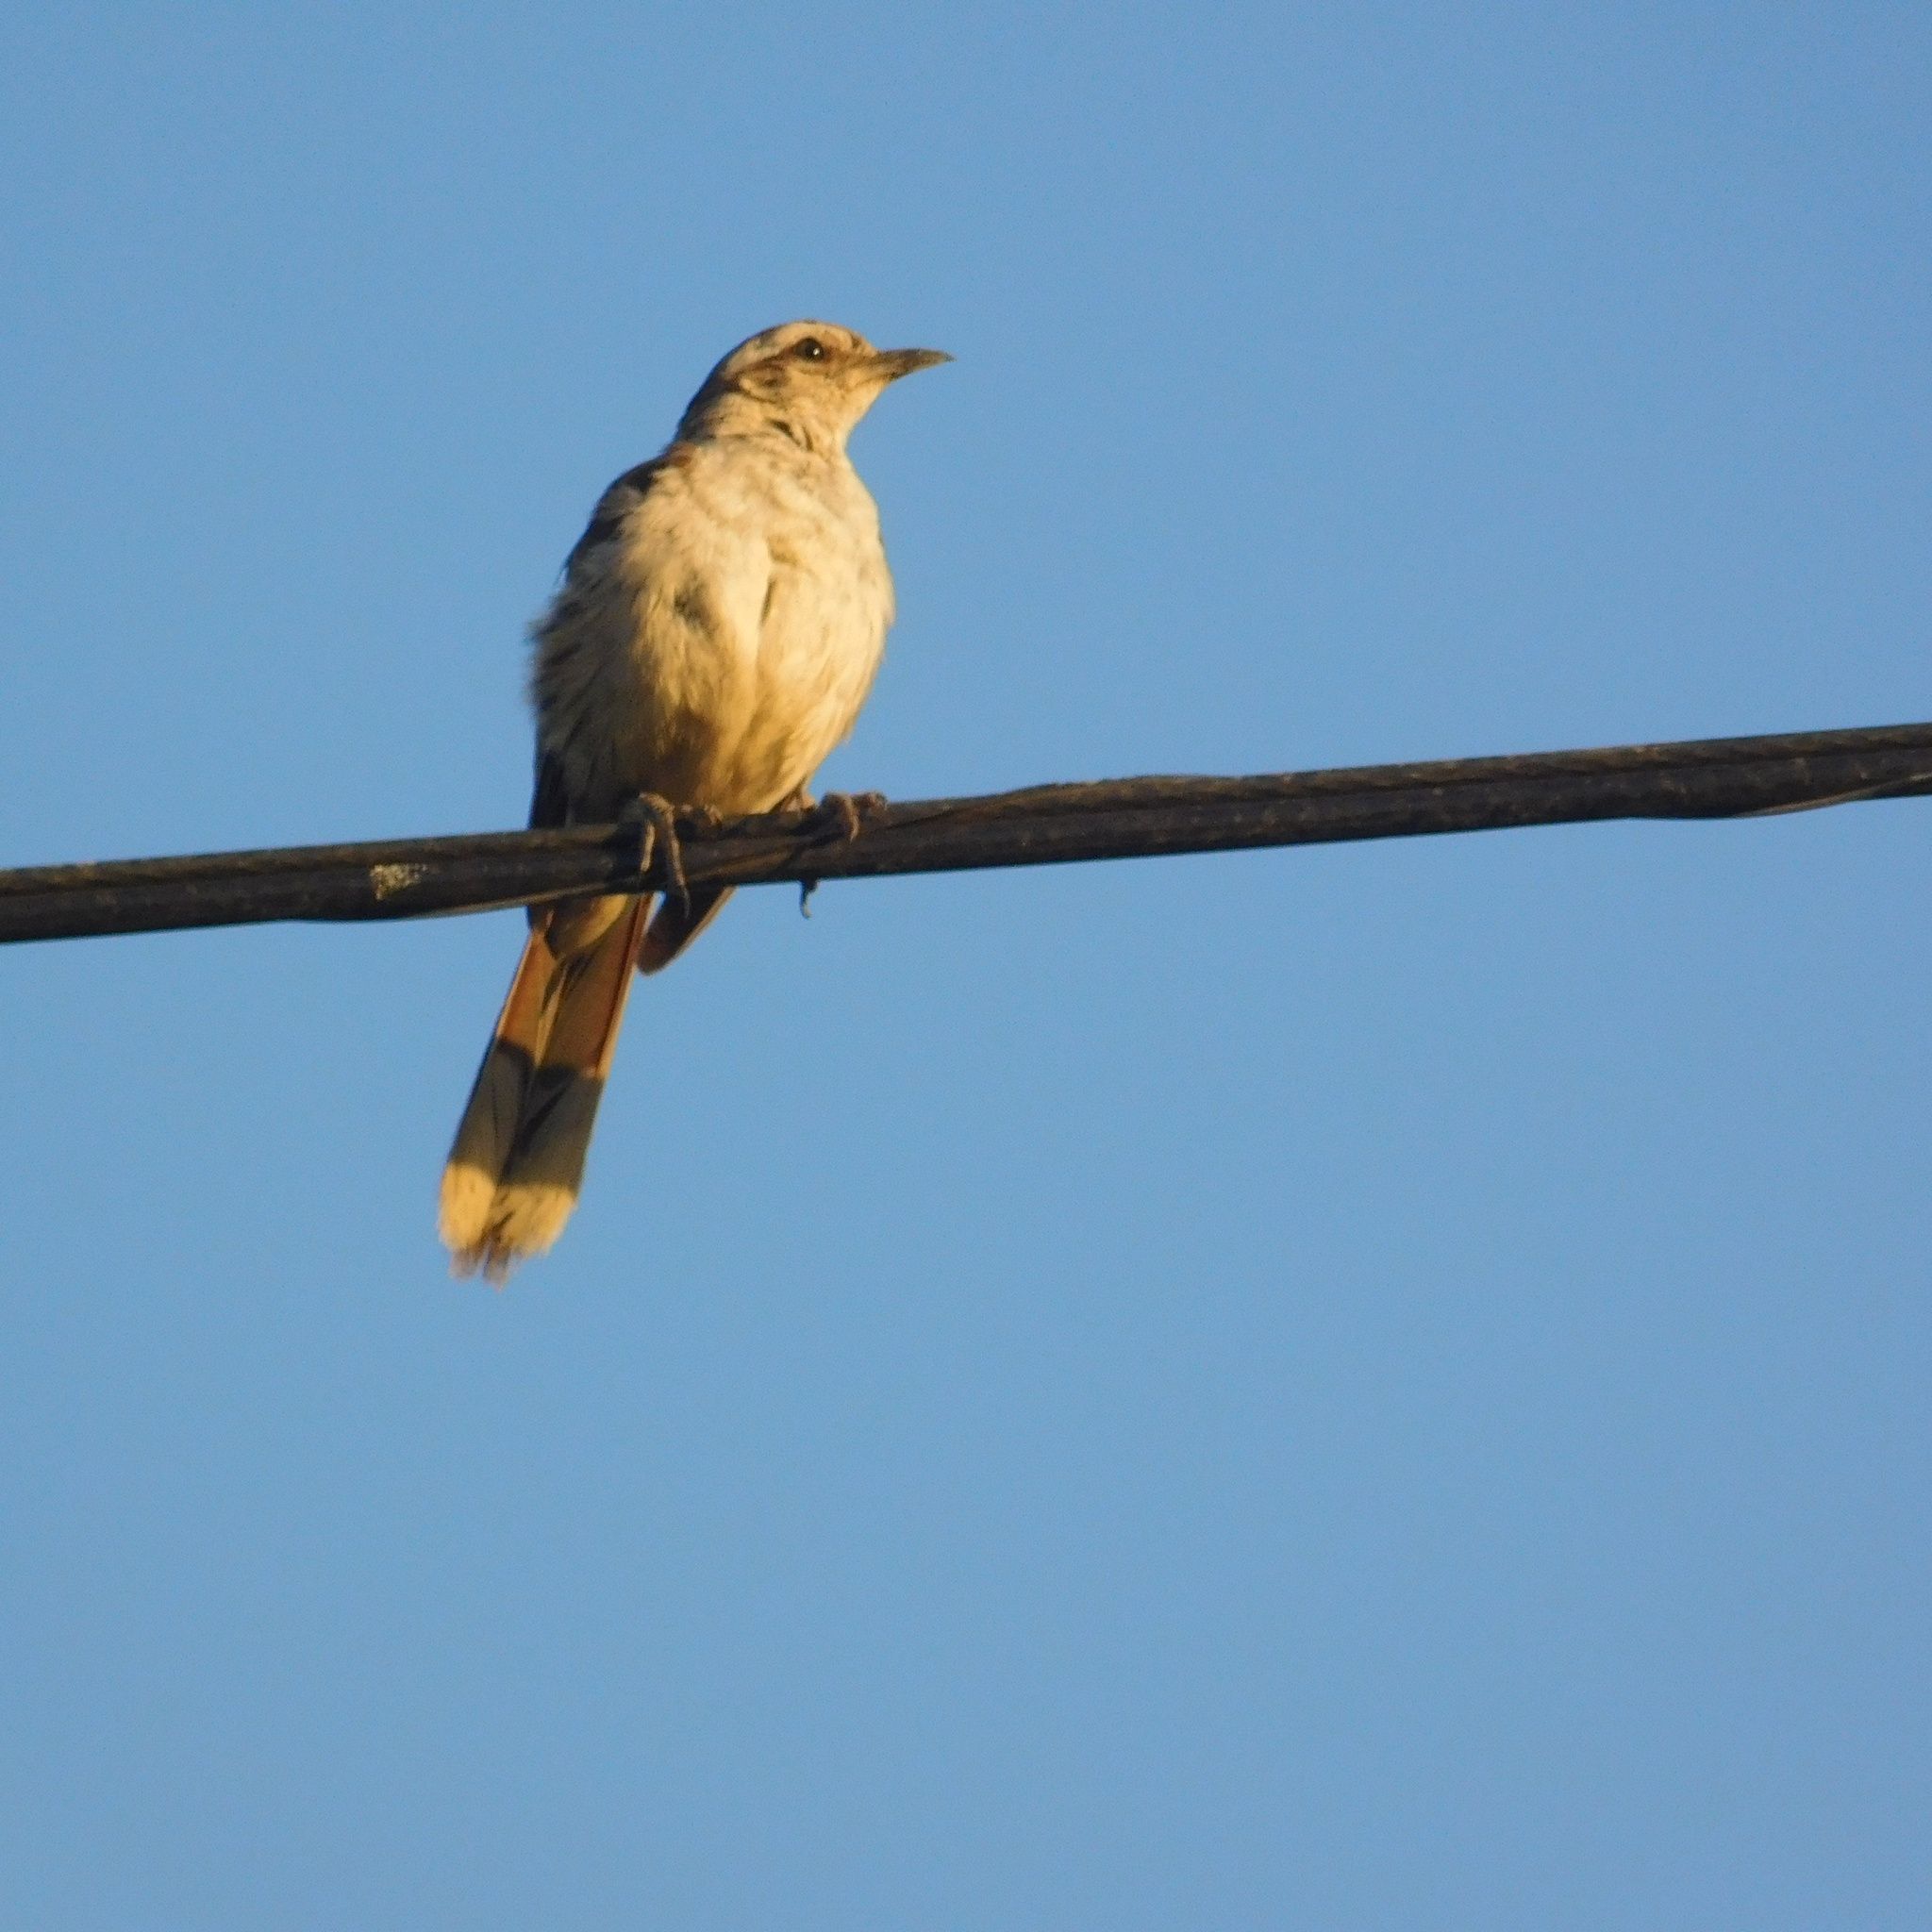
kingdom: Animalia
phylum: Chordata
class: Aves
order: Passeriformes
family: Mimidae
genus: Mimus
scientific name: Mimus saturninus
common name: Chalk-browed mockingbird
